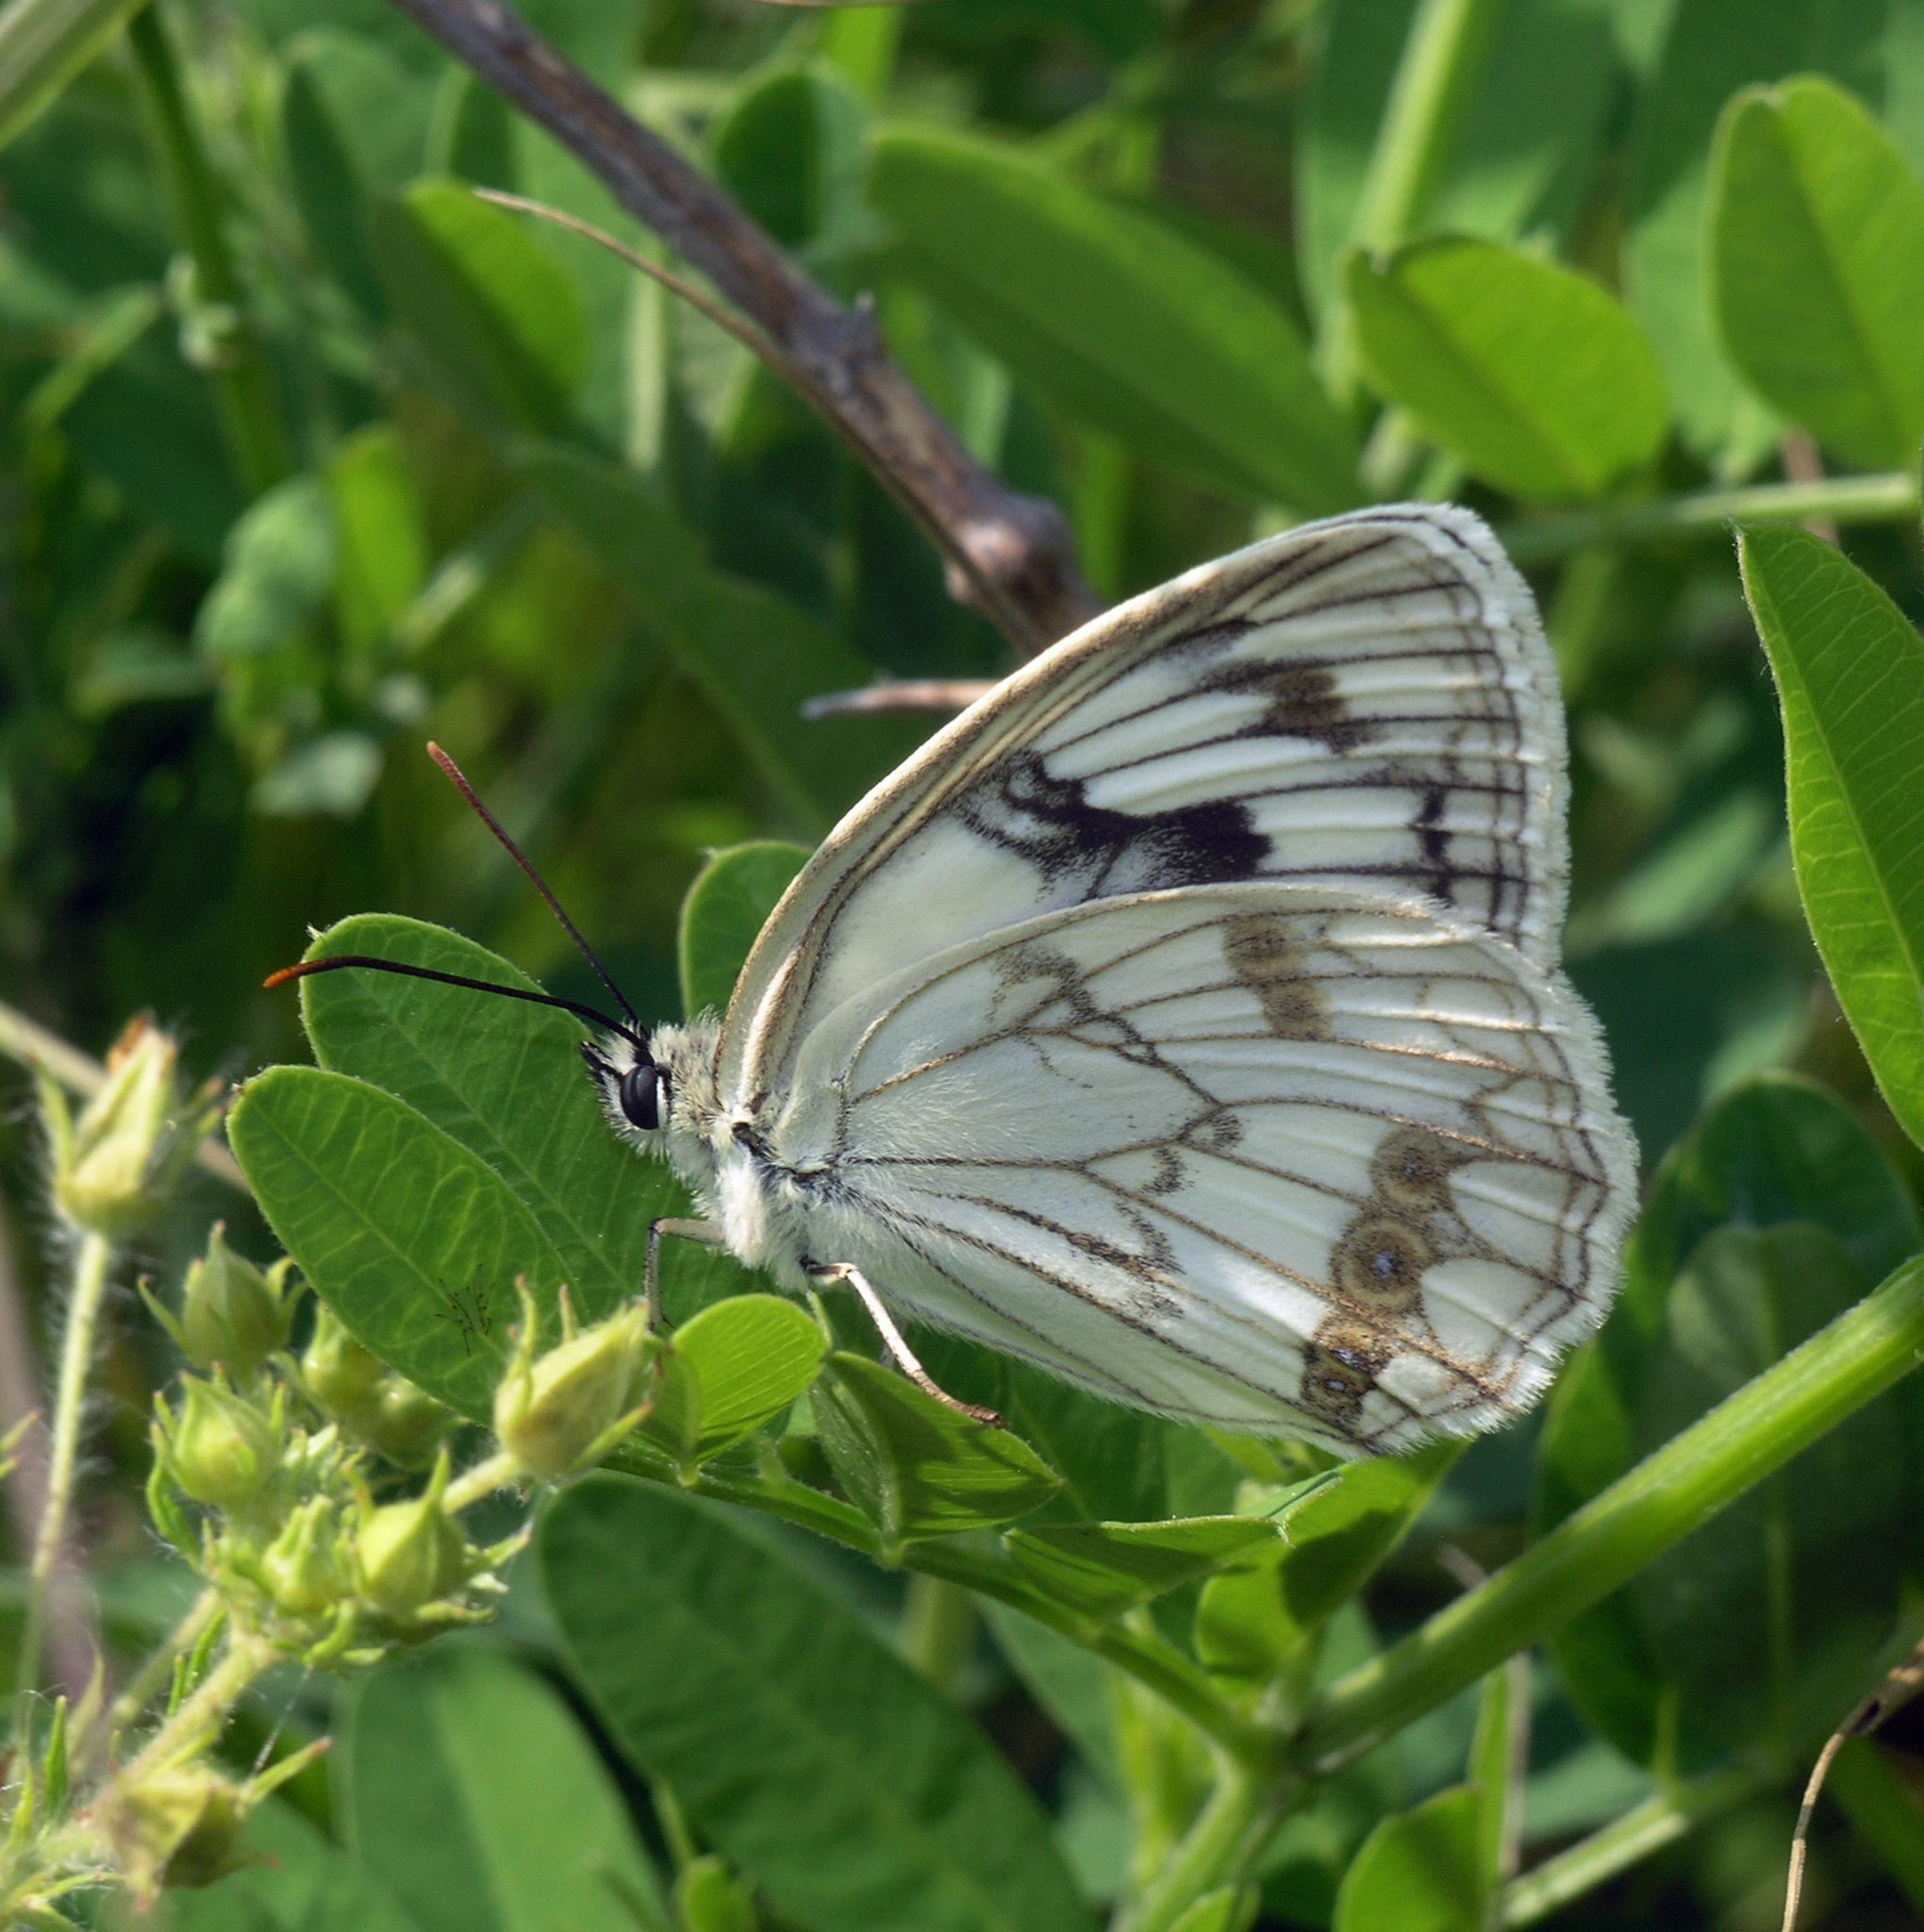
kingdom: Animalia
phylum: Arthropoda
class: Insecta
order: Lepidoptera
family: Nymphalidae
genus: Melanargia
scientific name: Melanargia halimede
